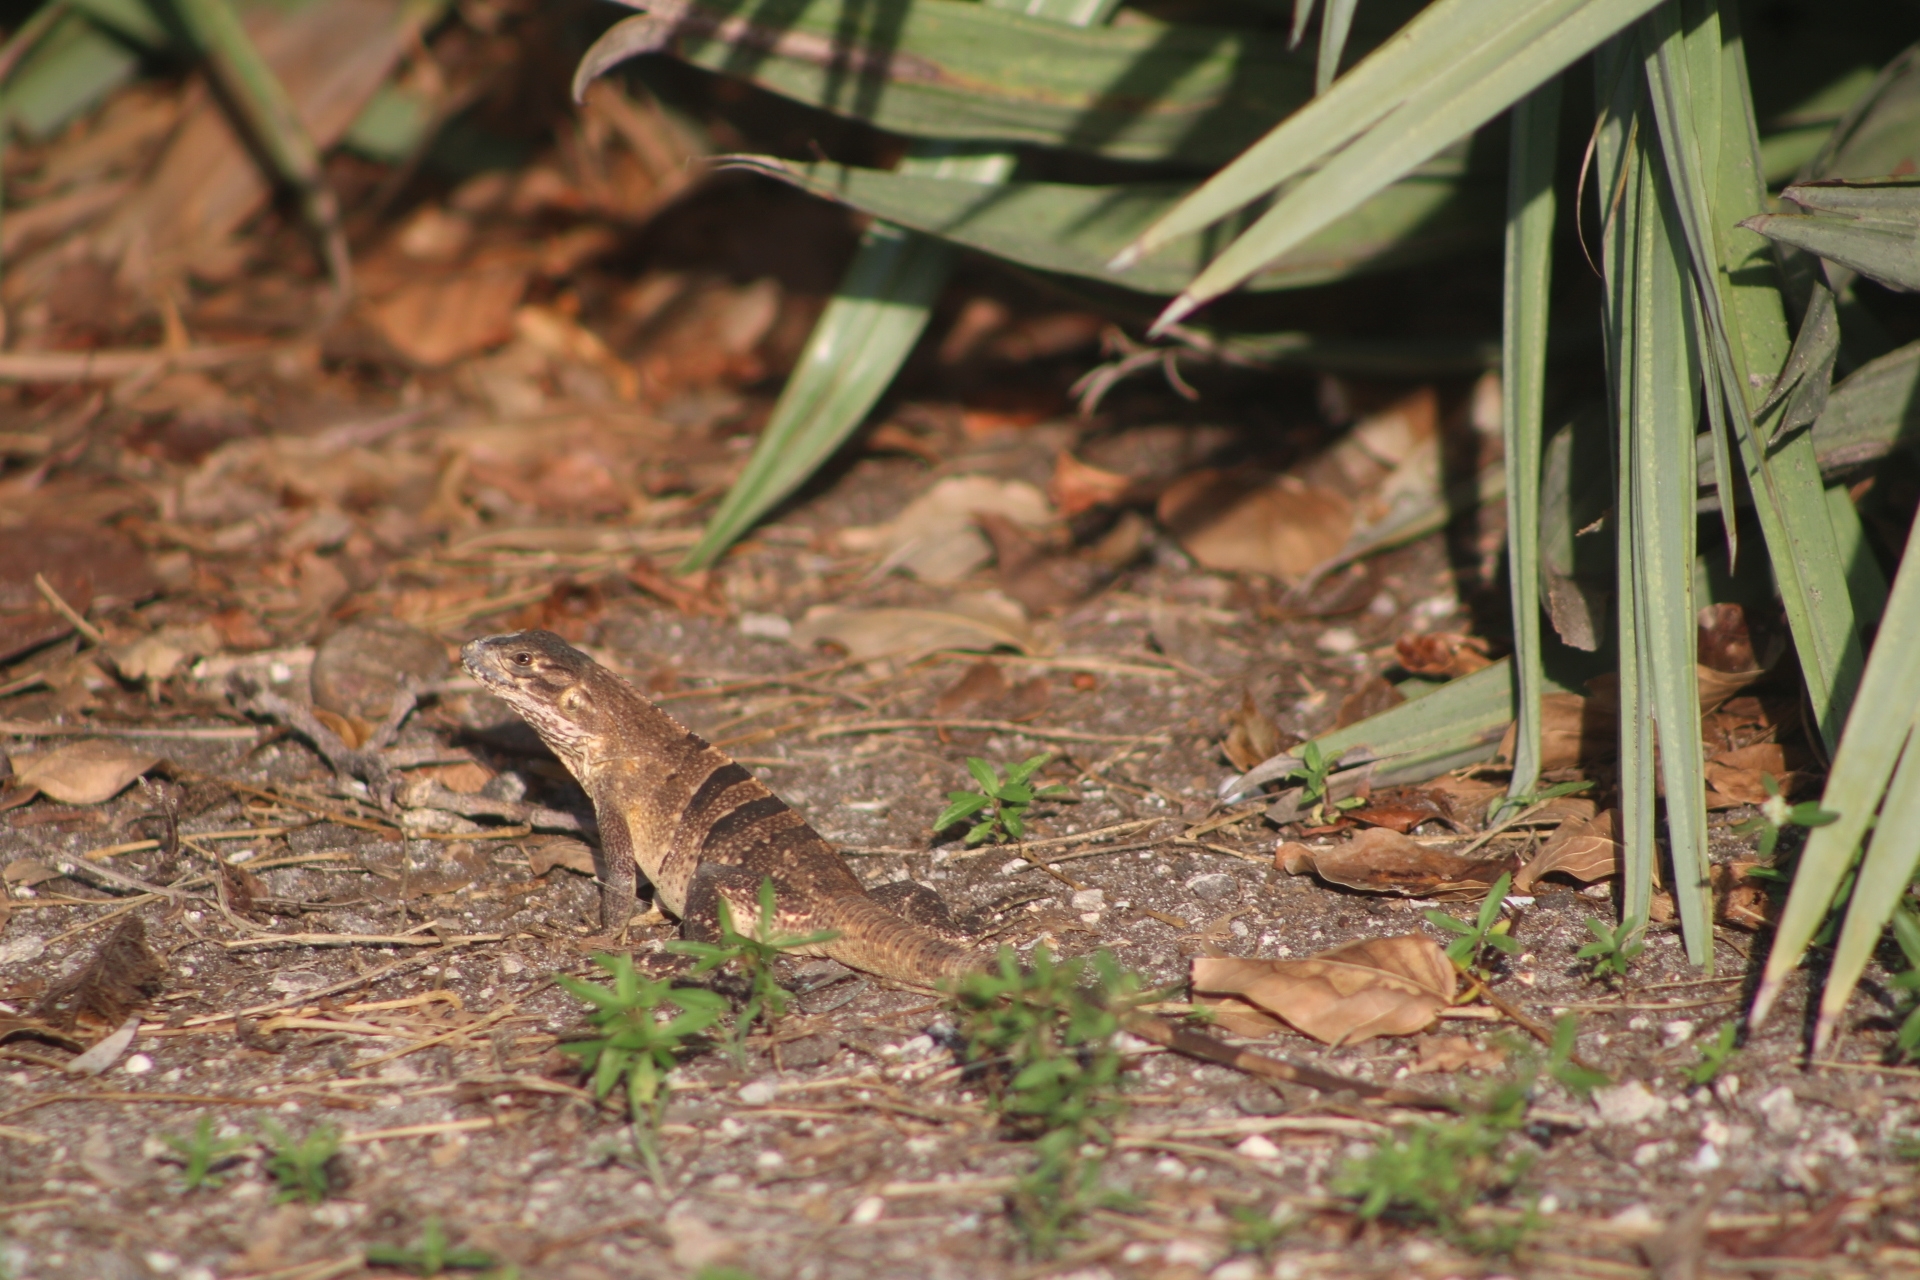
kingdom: Animalia
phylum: Chordata
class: Squamata
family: Iguanidae
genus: Ctenosaura
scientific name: Ctenosaura similis
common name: Black spiny-tailed iguana
